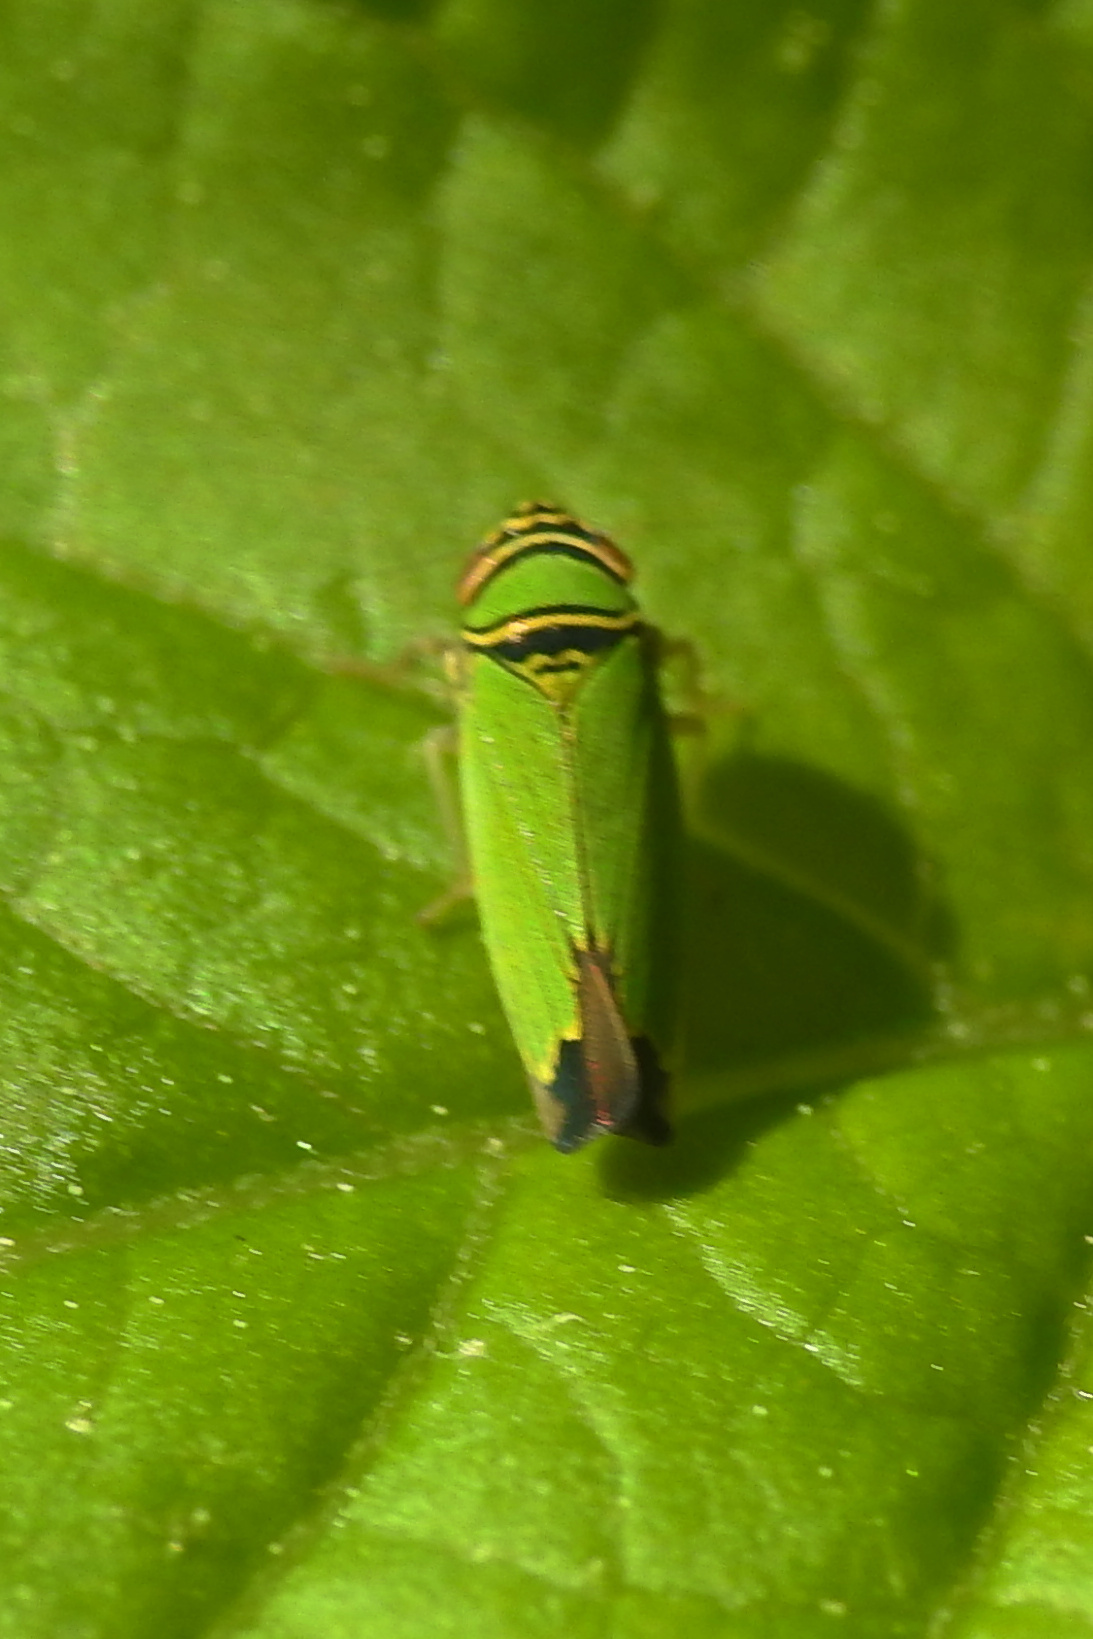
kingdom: Animalia
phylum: Arthropoda
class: Insecta
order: Hemiptera
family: Cicadellidae
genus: Tylozygus
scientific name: Tylozygus geometricus
